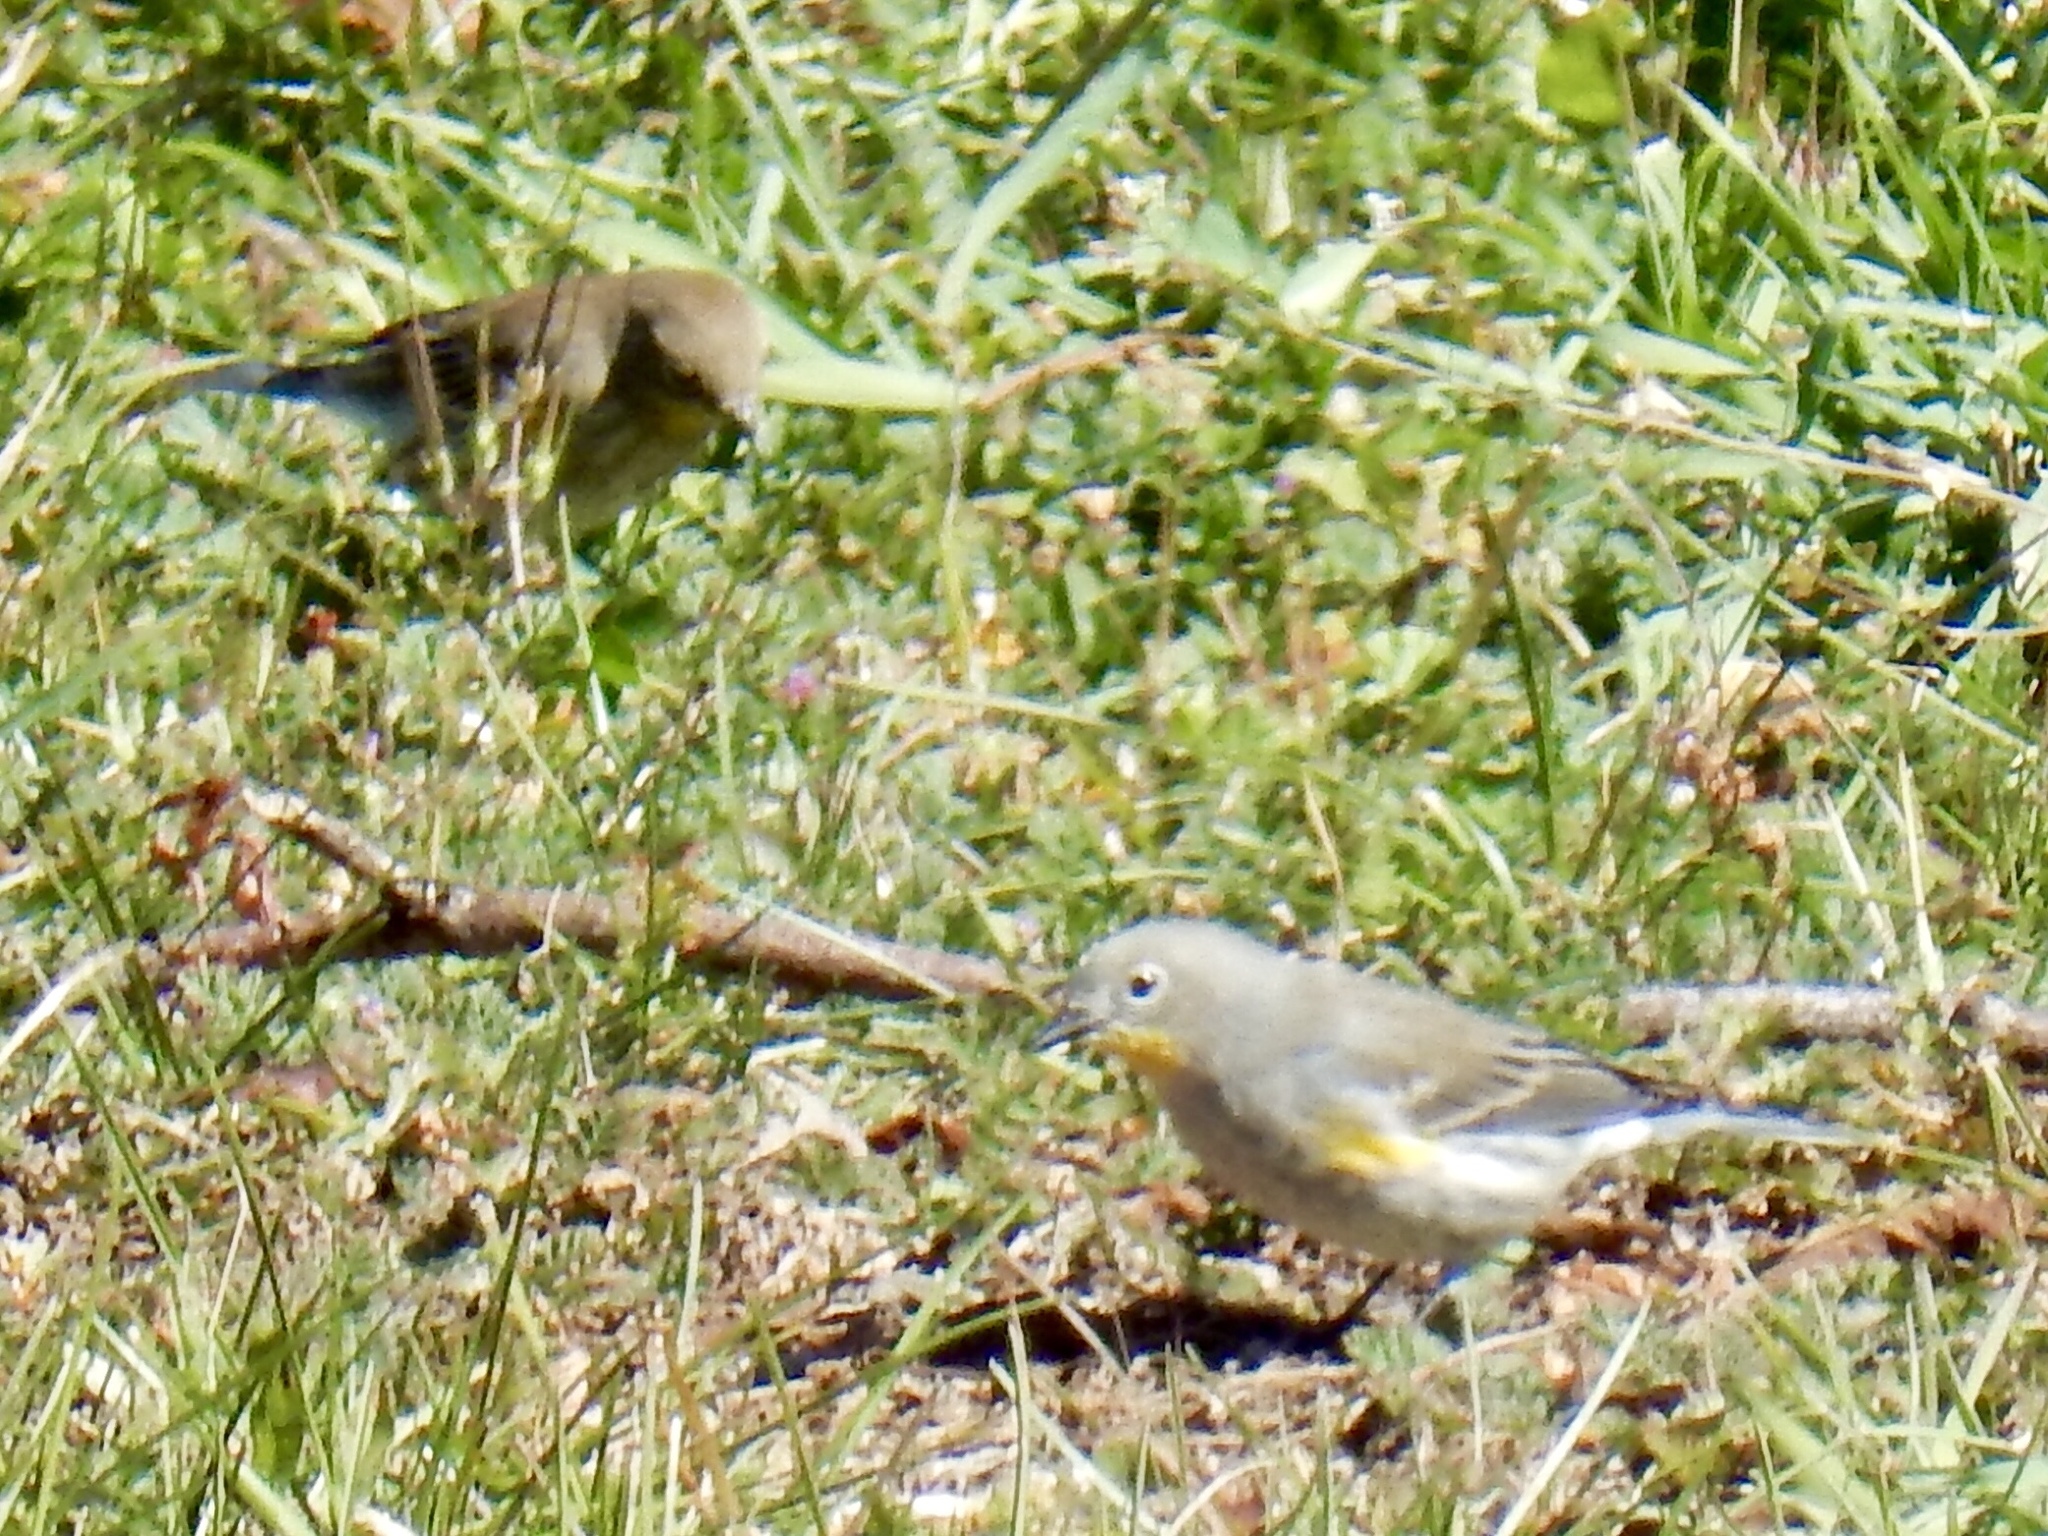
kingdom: Animalia
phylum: Chordata
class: Aves
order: Passeriformes
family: Parulidae
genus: Setophaga
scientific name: Setophaga auduboni
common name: Audubon's warbler
